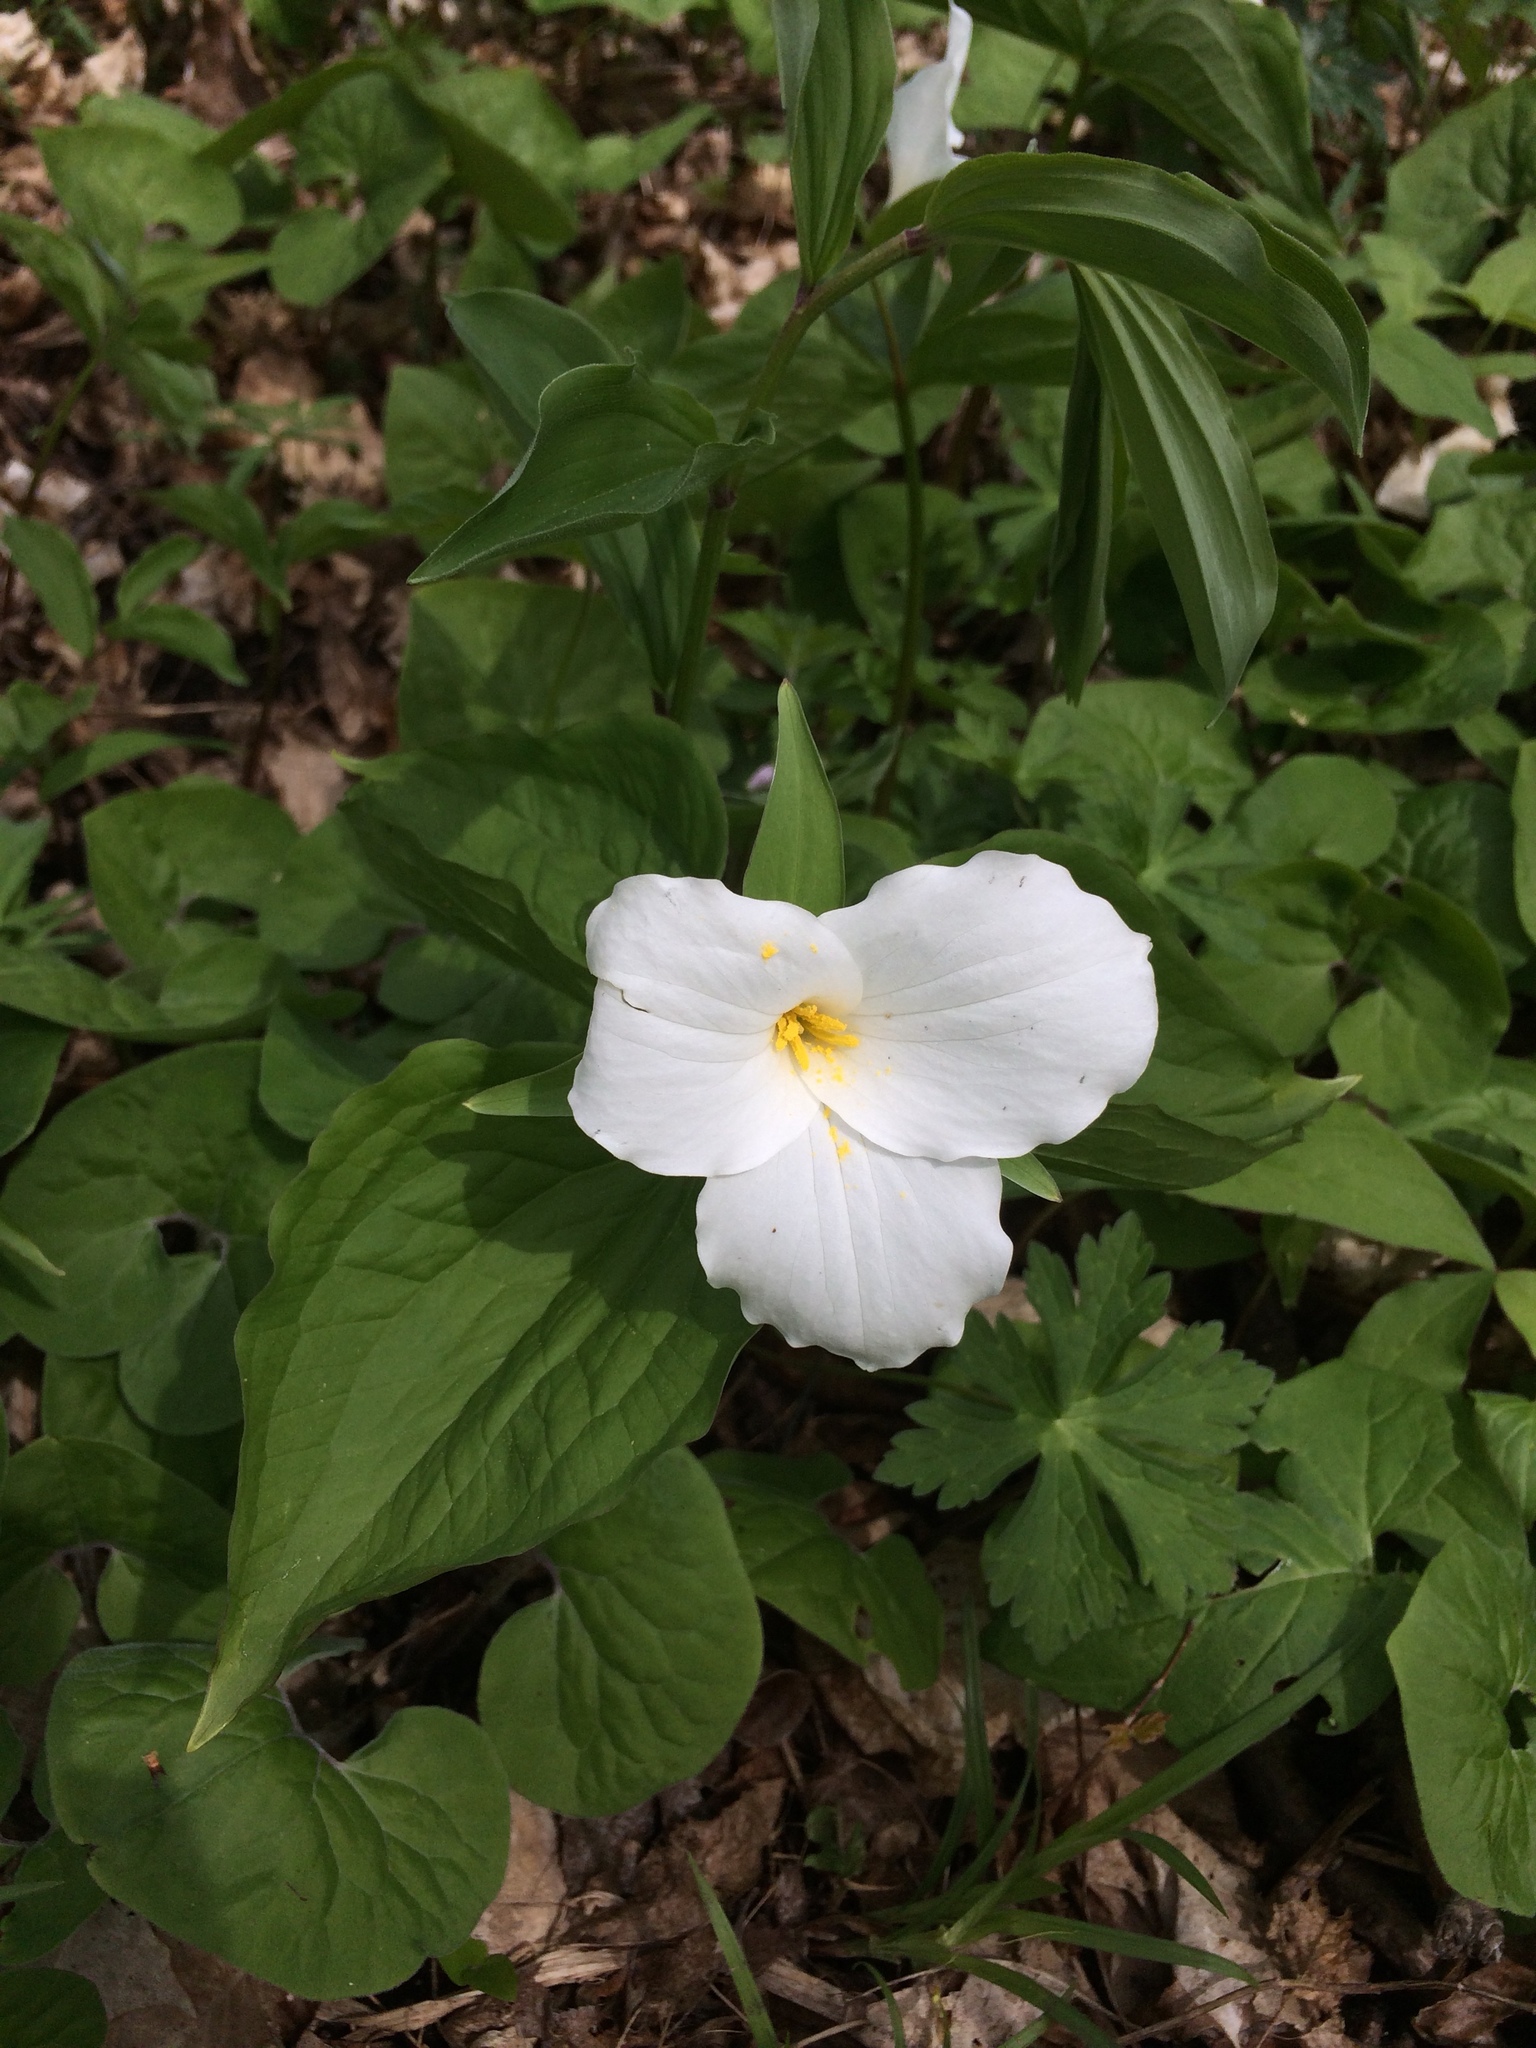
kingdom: Plantae
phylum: Tracheophyta
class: Liliopsida
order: Liliales
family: Melanthiaceae
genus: Trillium
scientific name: Trillium grandiflorum
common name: Great white trillium
